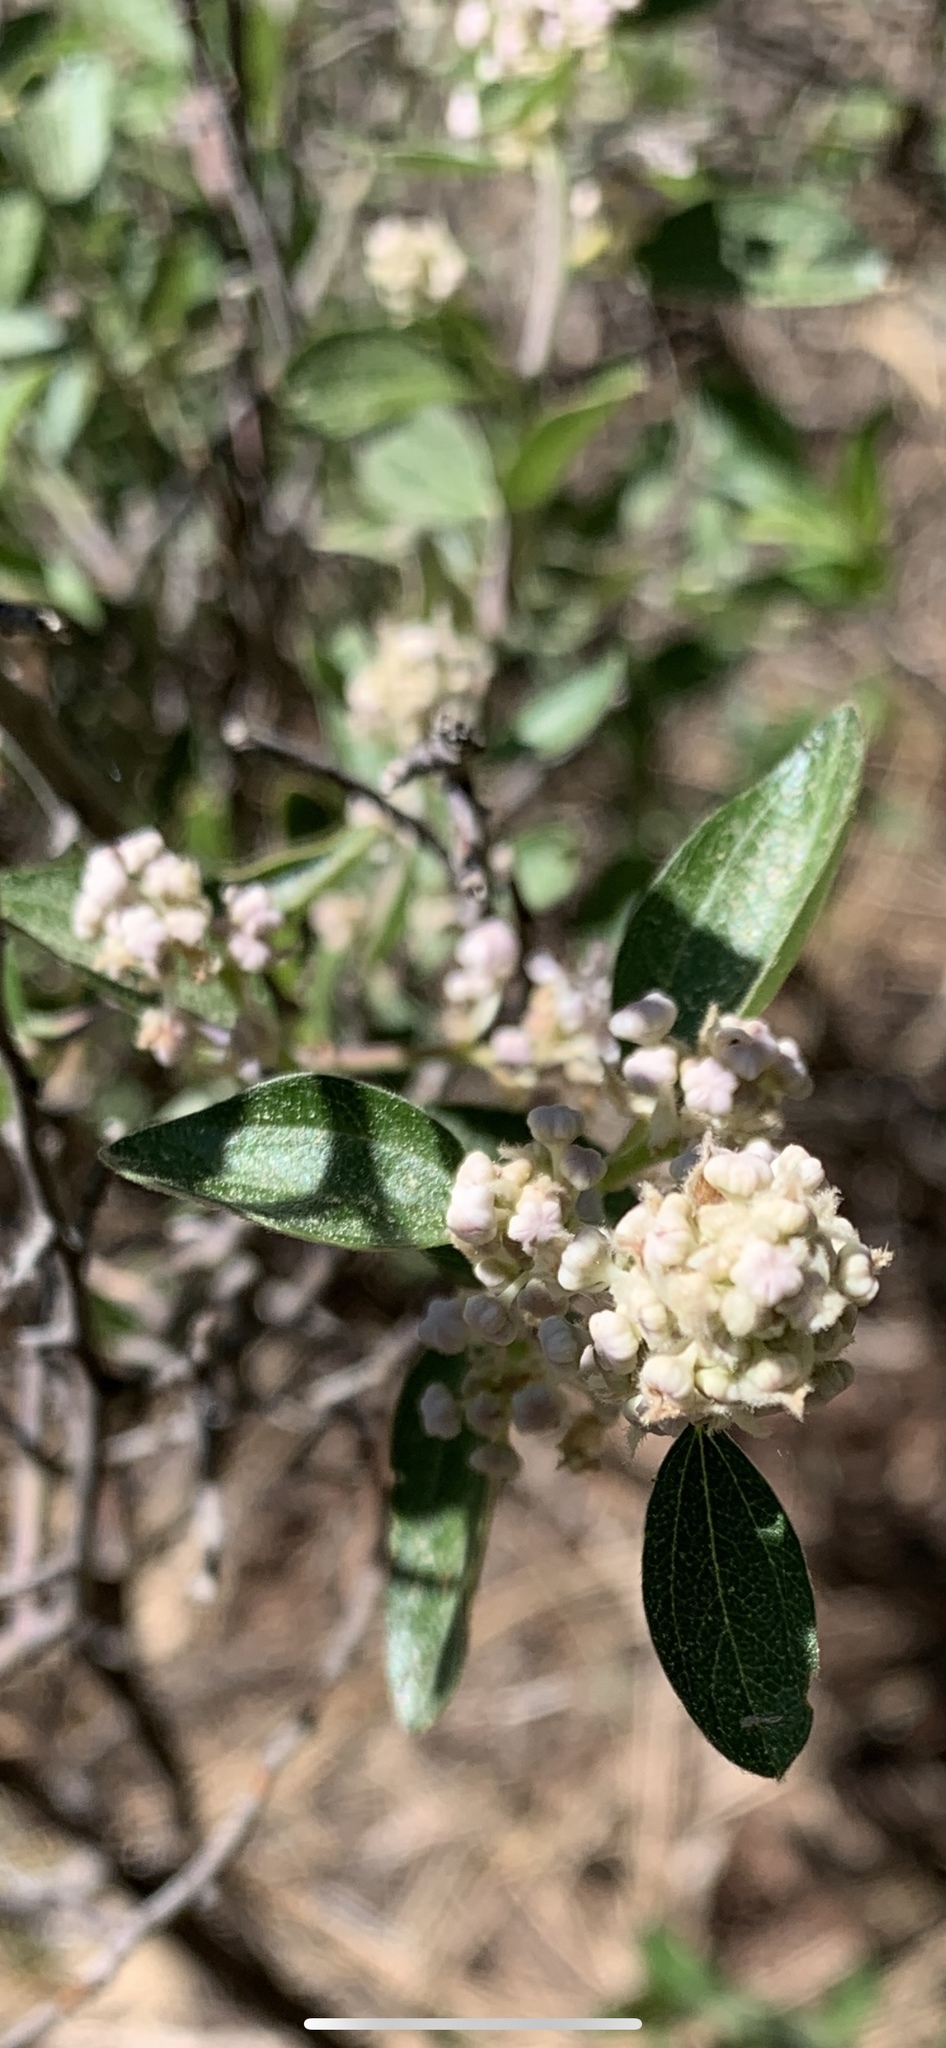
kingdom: Plantae
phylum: Tracheophyta
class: Magnoliopsida
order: Rosales
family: Rhamnaceae
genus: Ceanothus
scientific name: Ceanothus fendleri
